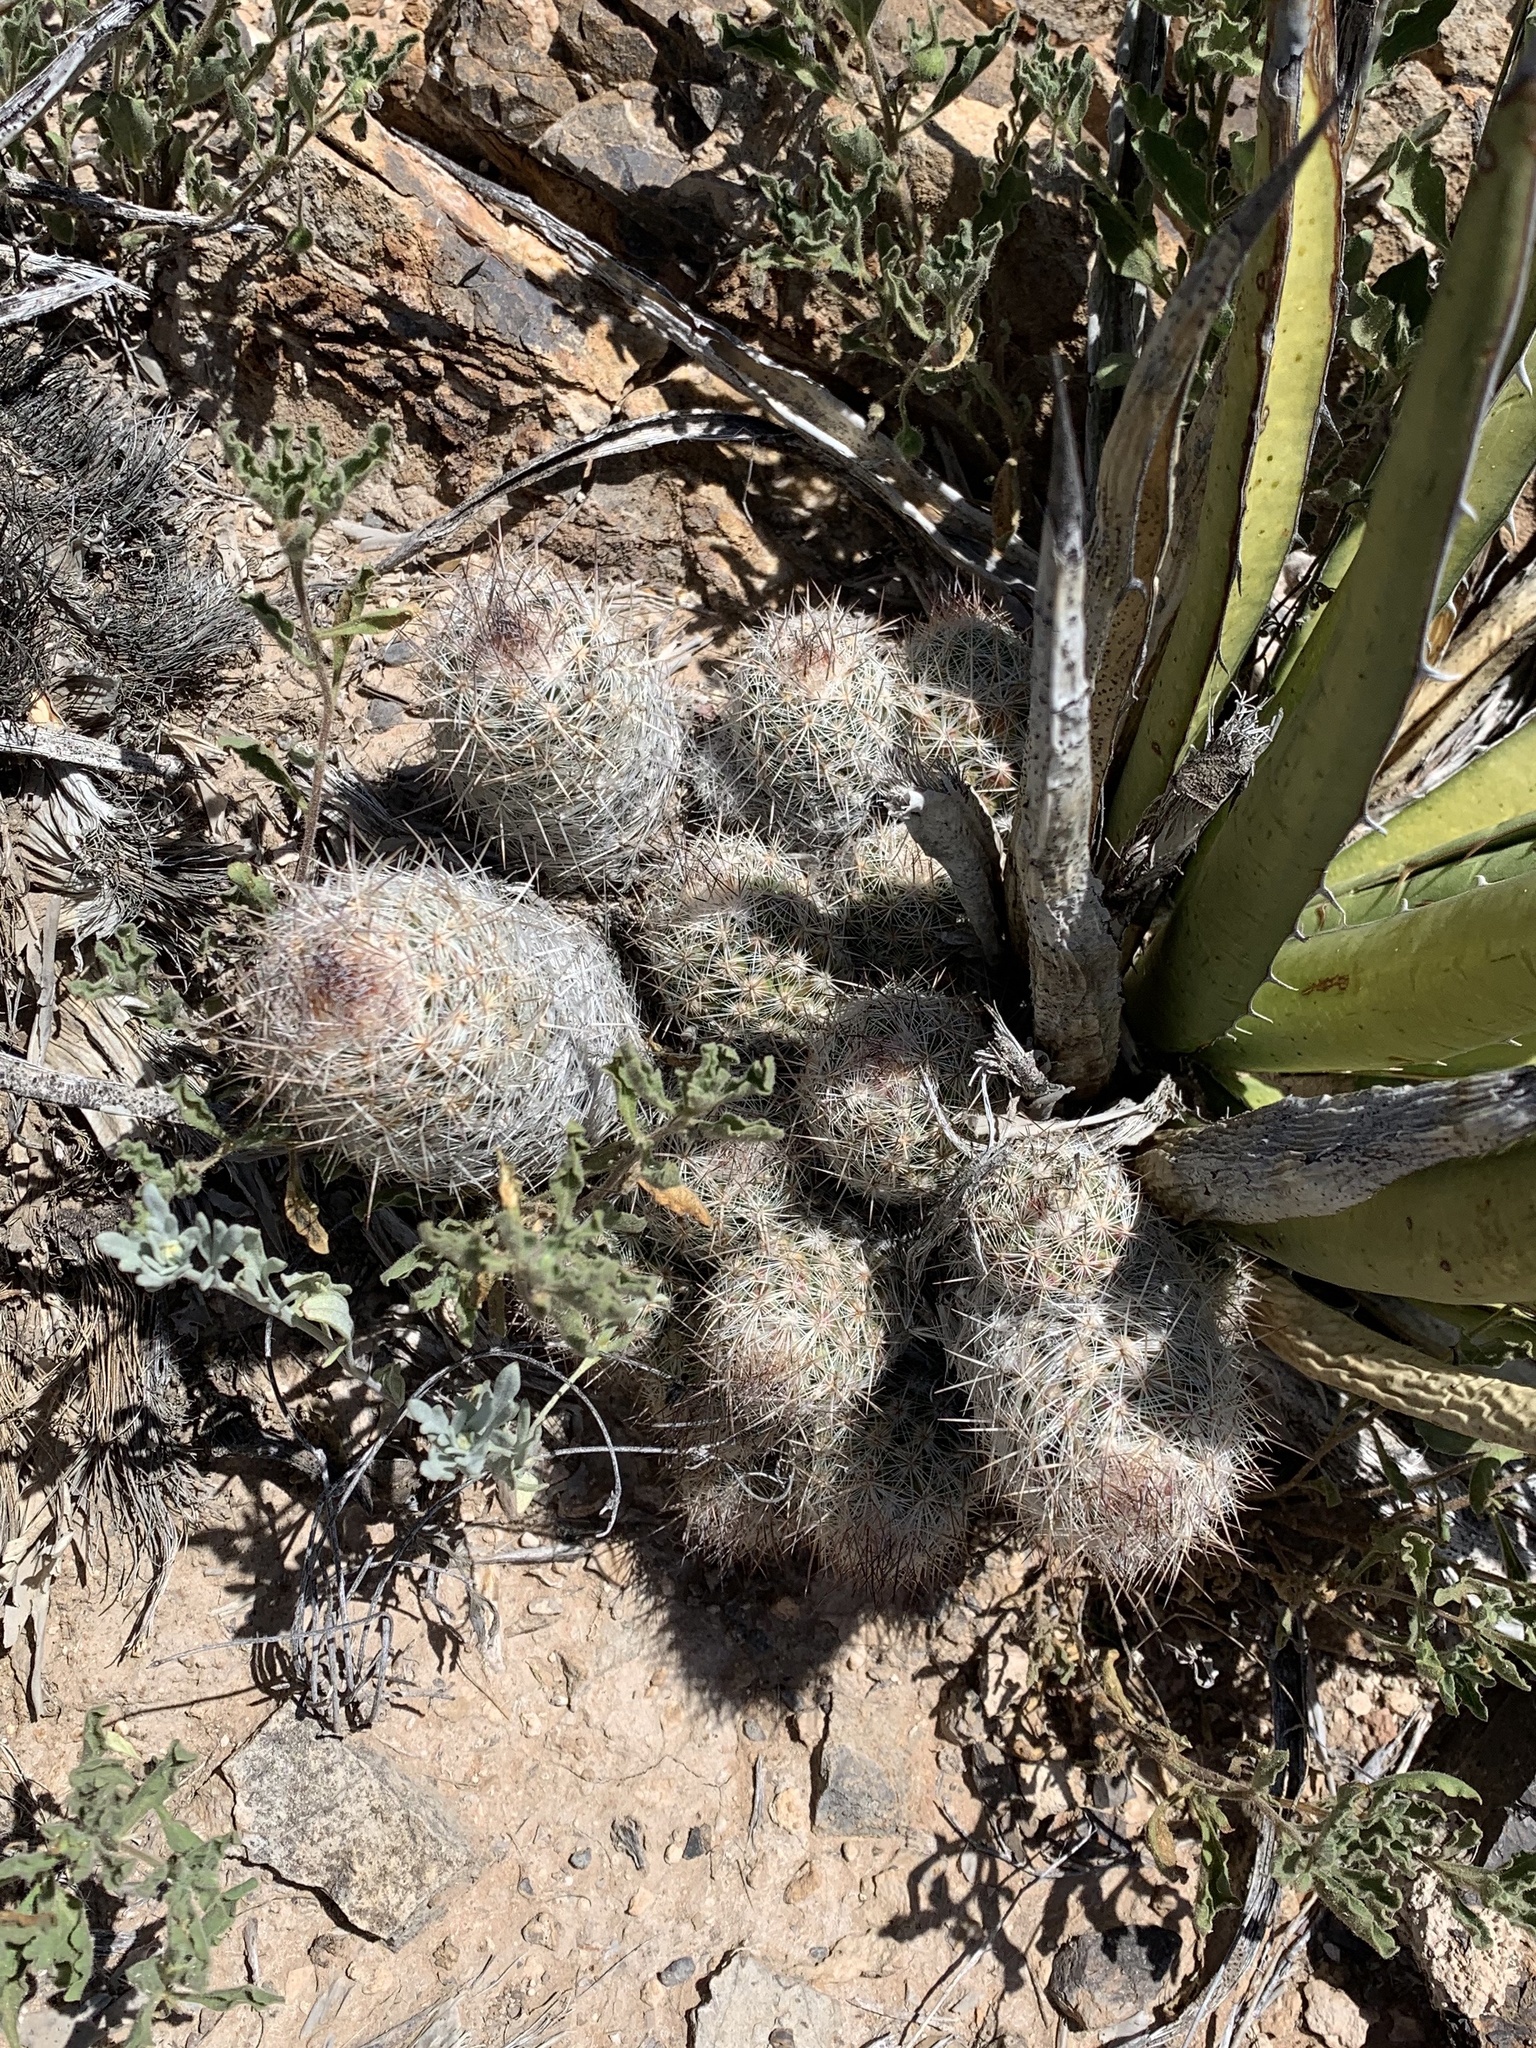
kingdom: Plantae
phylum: Tracheophyta
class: Magnoliopsida
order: Caryophyllales
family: Cactaceae
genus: Pelecyphora
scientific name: Pelecyphora tuberculosa
